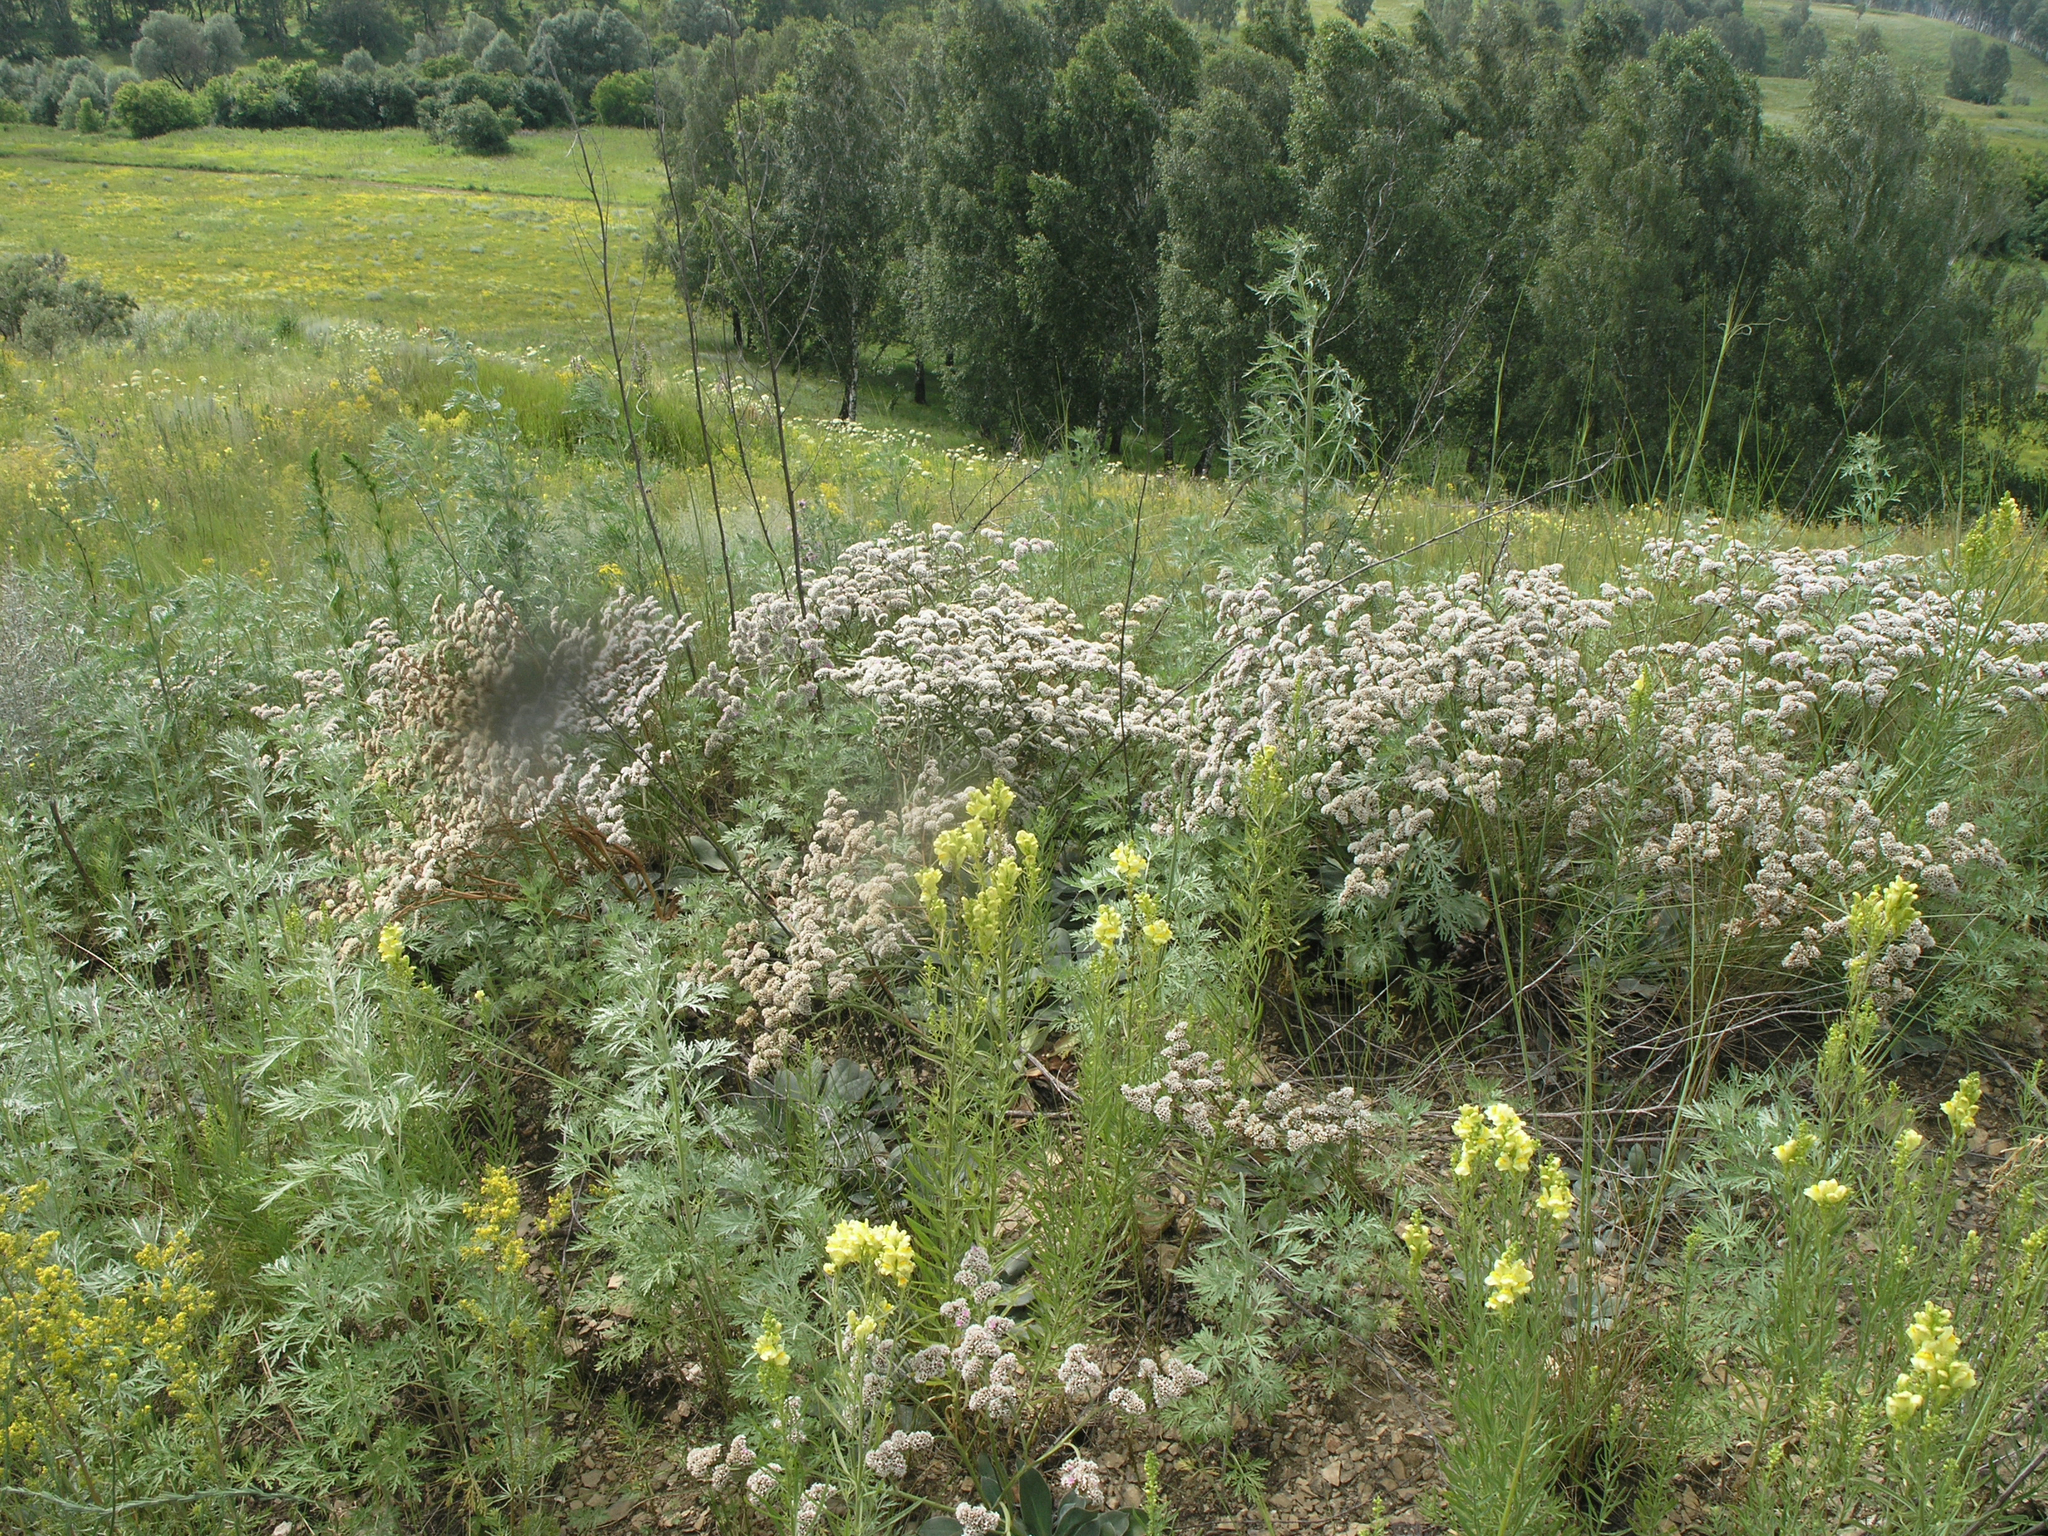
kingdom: Plantae
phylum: Tracheophyta
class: Magnoliopsida
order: Caryophyllales
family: Plumbaginaceae
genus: Goniolimon
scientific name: Goniolimon speciosum
